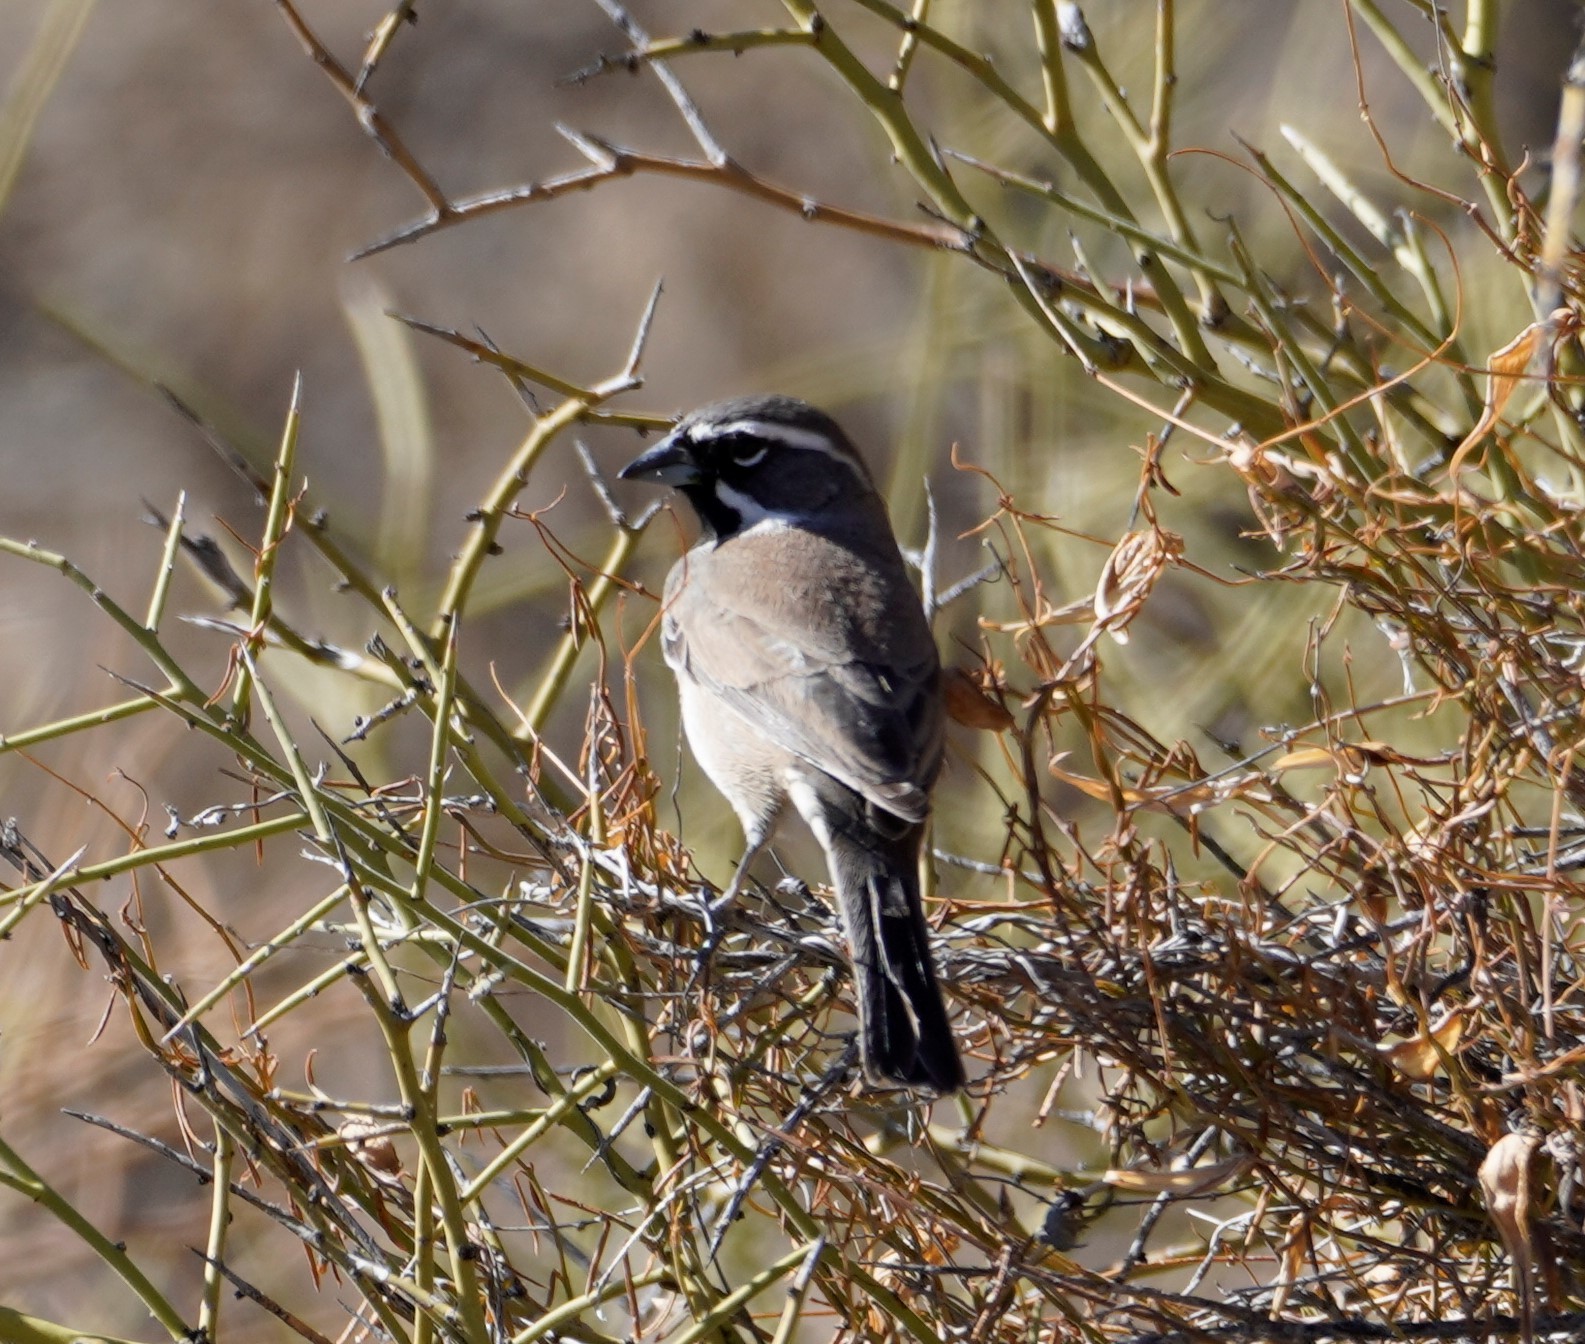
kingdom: Animalia
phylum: Chordata
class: Aves
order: Passeriformes
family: Passerellidae
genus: Amphispiza
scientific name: Amphispiza bilineata
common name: Black-throated sparrow
